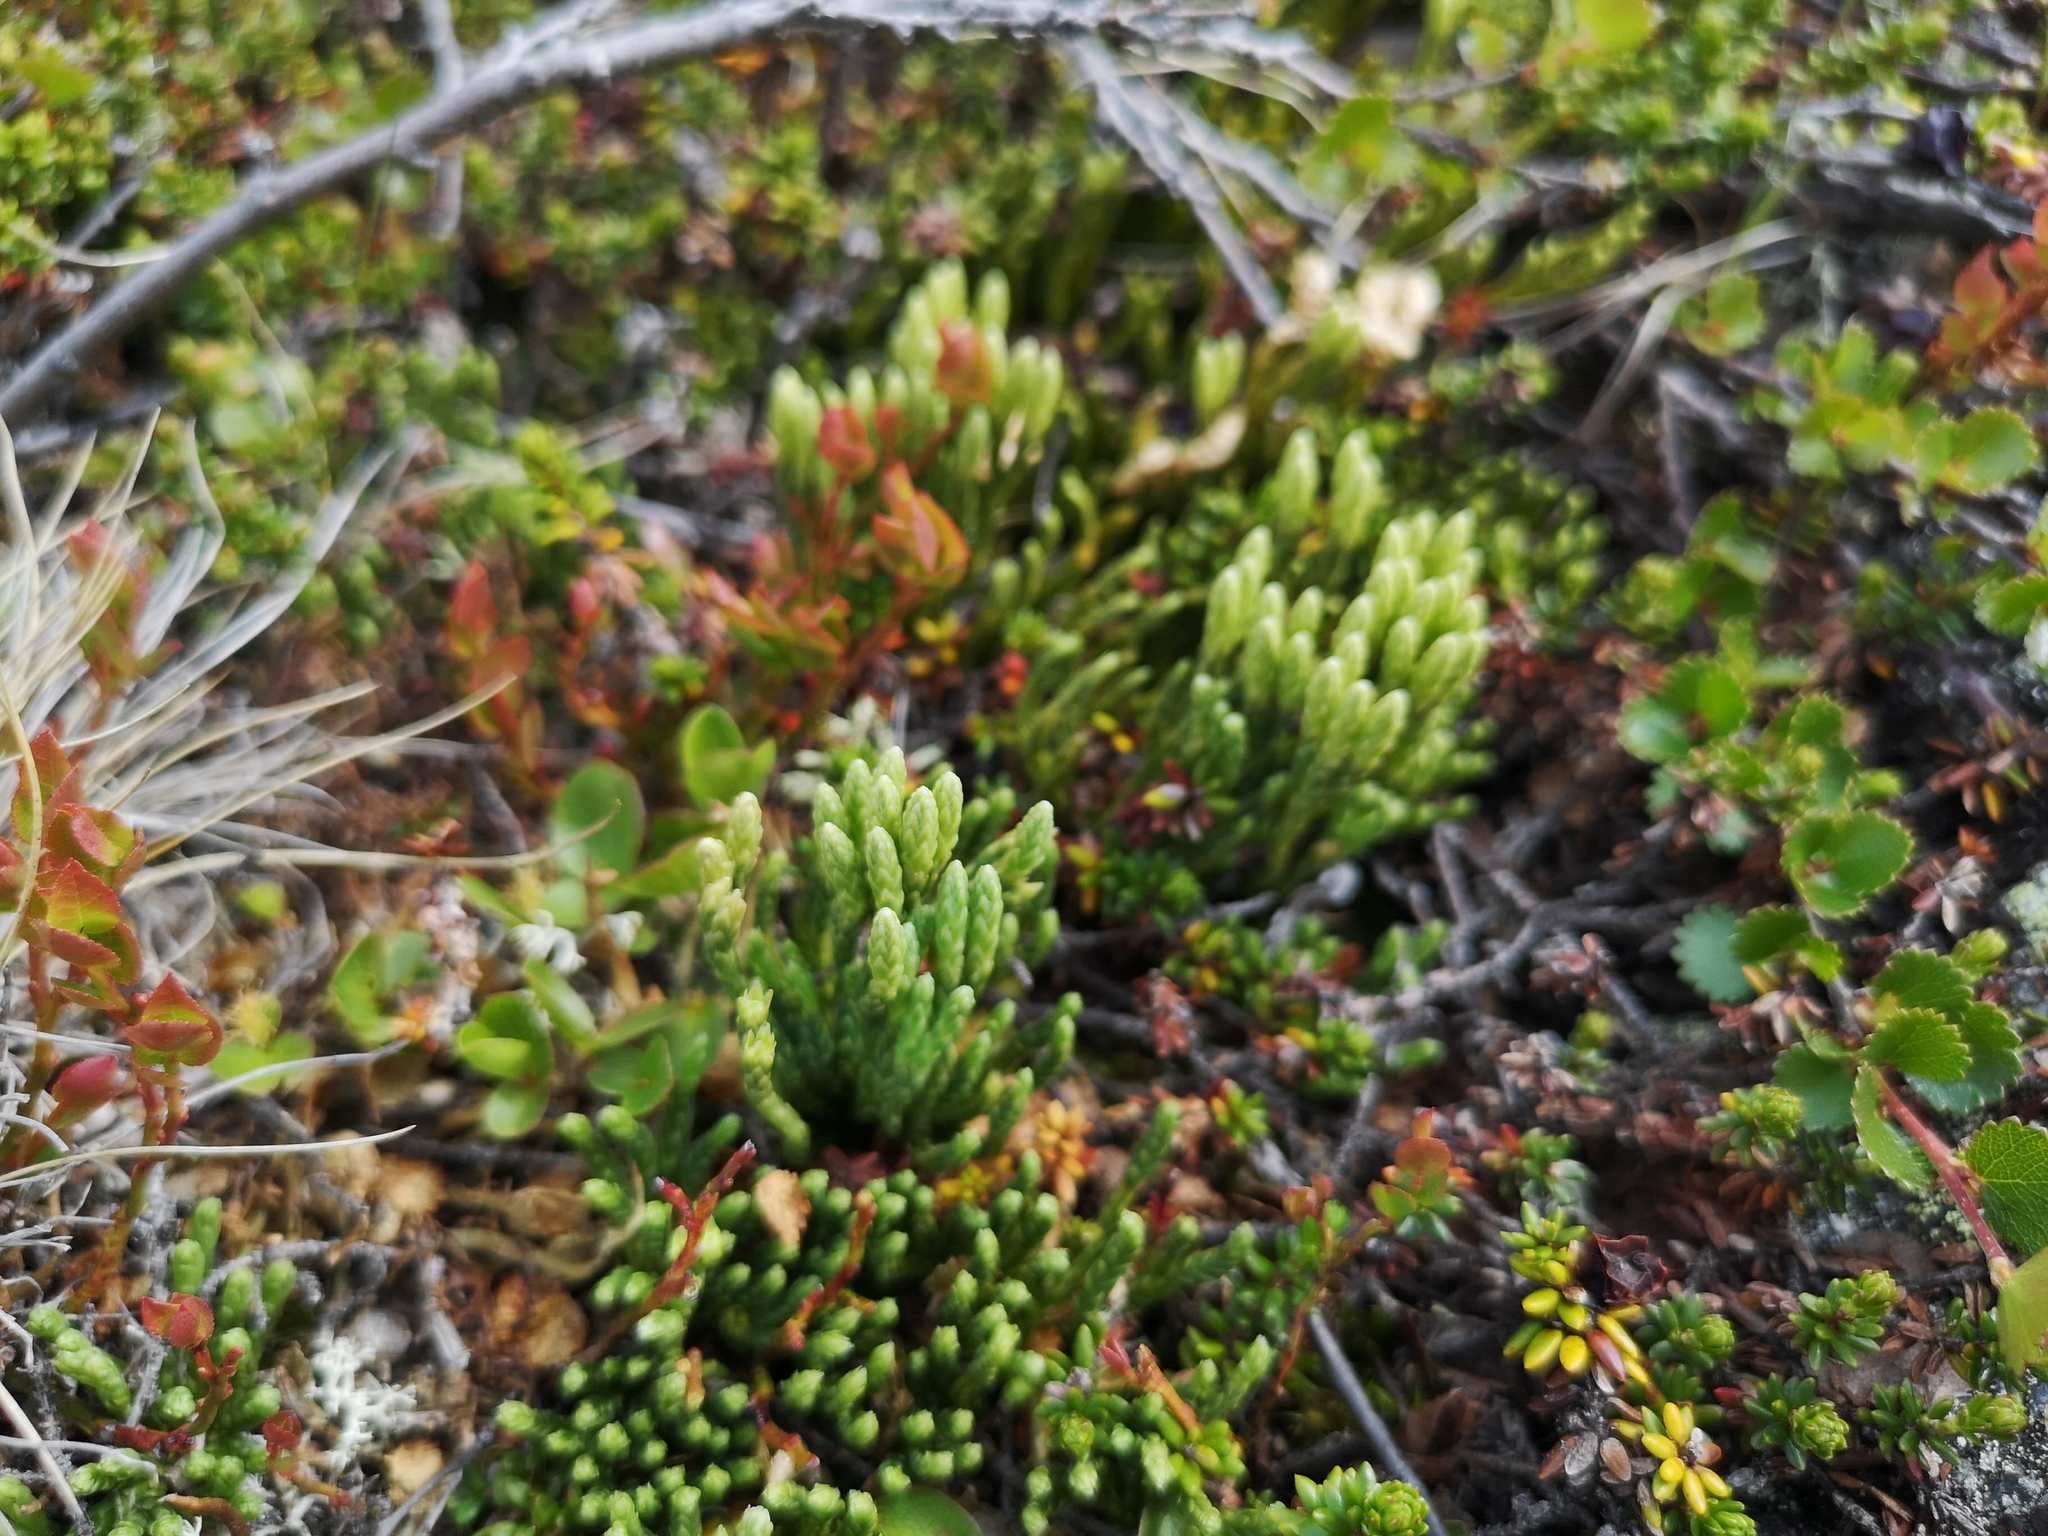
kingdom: Plantae
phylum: Tracheophyta
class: Lycopodiopsida
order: Lycopodiales
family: Lycopodiaceae
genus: Diphasiastrum
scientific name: Diphasiastrum alpinum
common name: Alpine clubmoss
